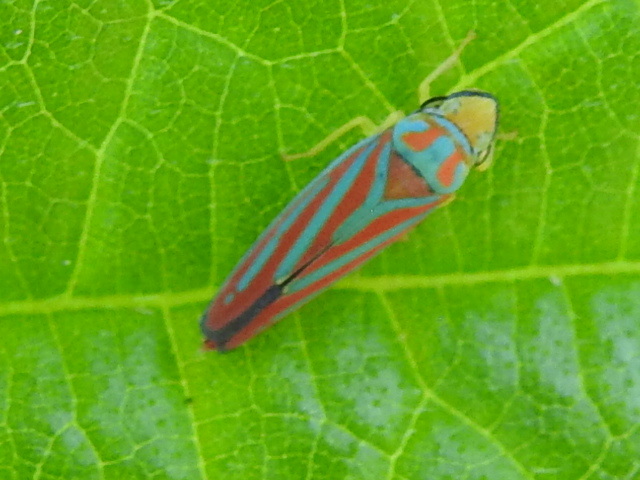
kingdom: Animalia
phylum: Arthropoda
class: Insecta
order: Hemiptera
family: Cicadellidae
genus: Graphocephala
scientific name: Graphocephala coccinea
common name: Candy-striped leafhopper
